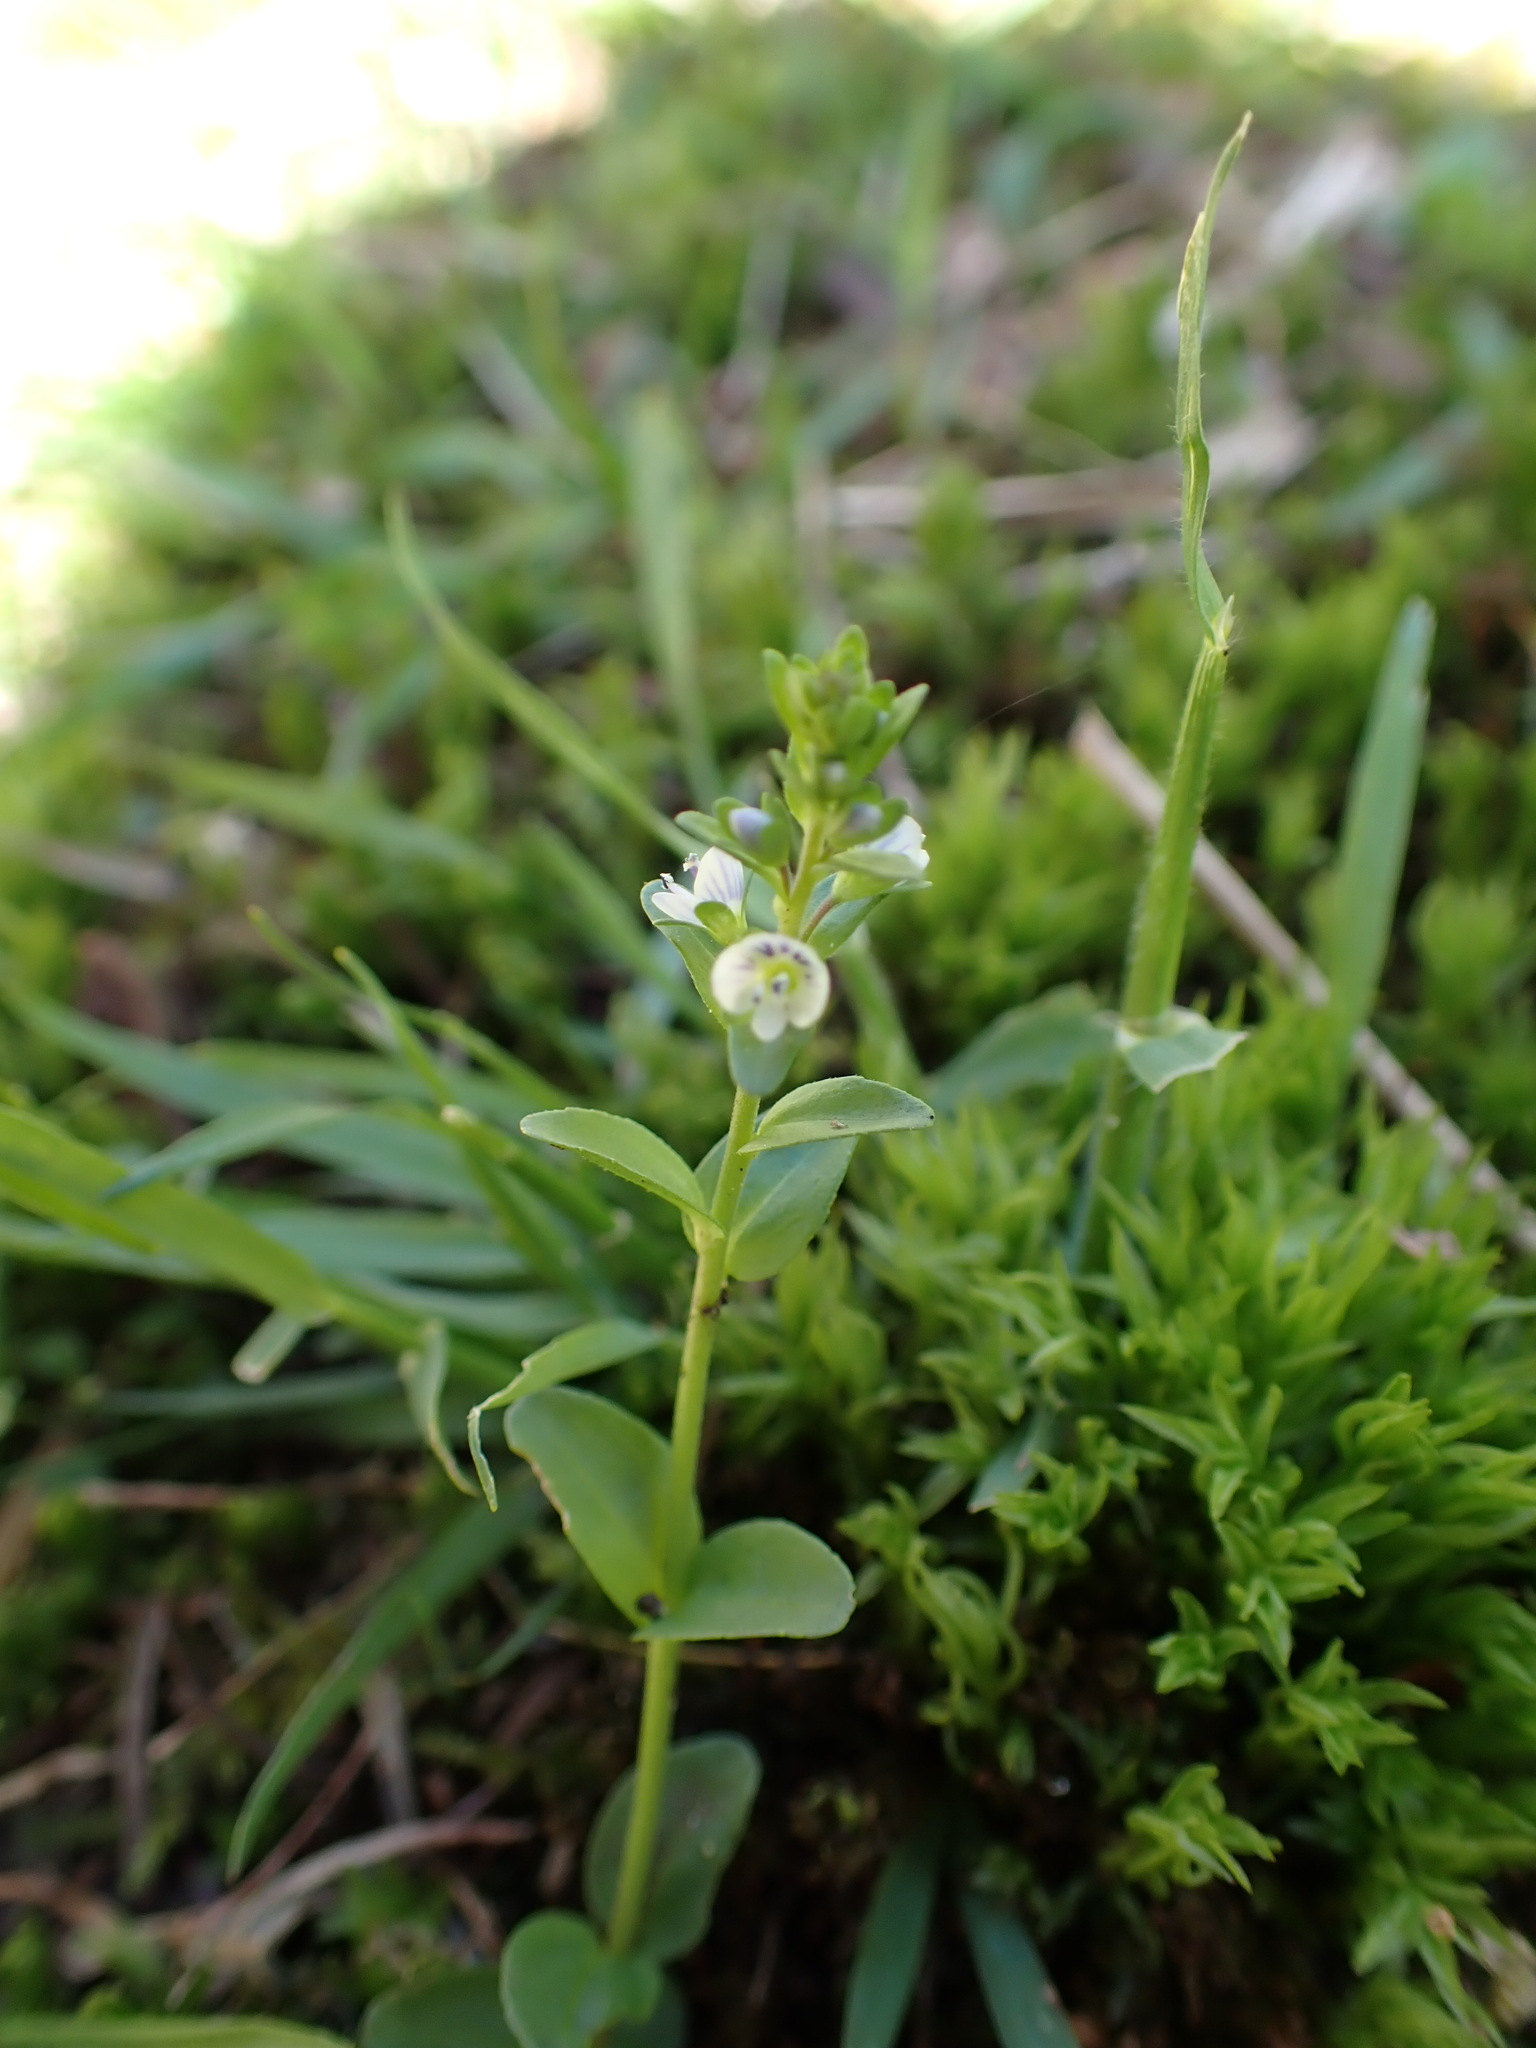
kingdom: Plantae
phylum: Tracheophyta
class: Magnoliopsida
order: Lamiales
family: Plantaginaceae
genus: Veronica
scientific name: Veronica serpyllifolia
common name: Thyme-leaved speedwell
